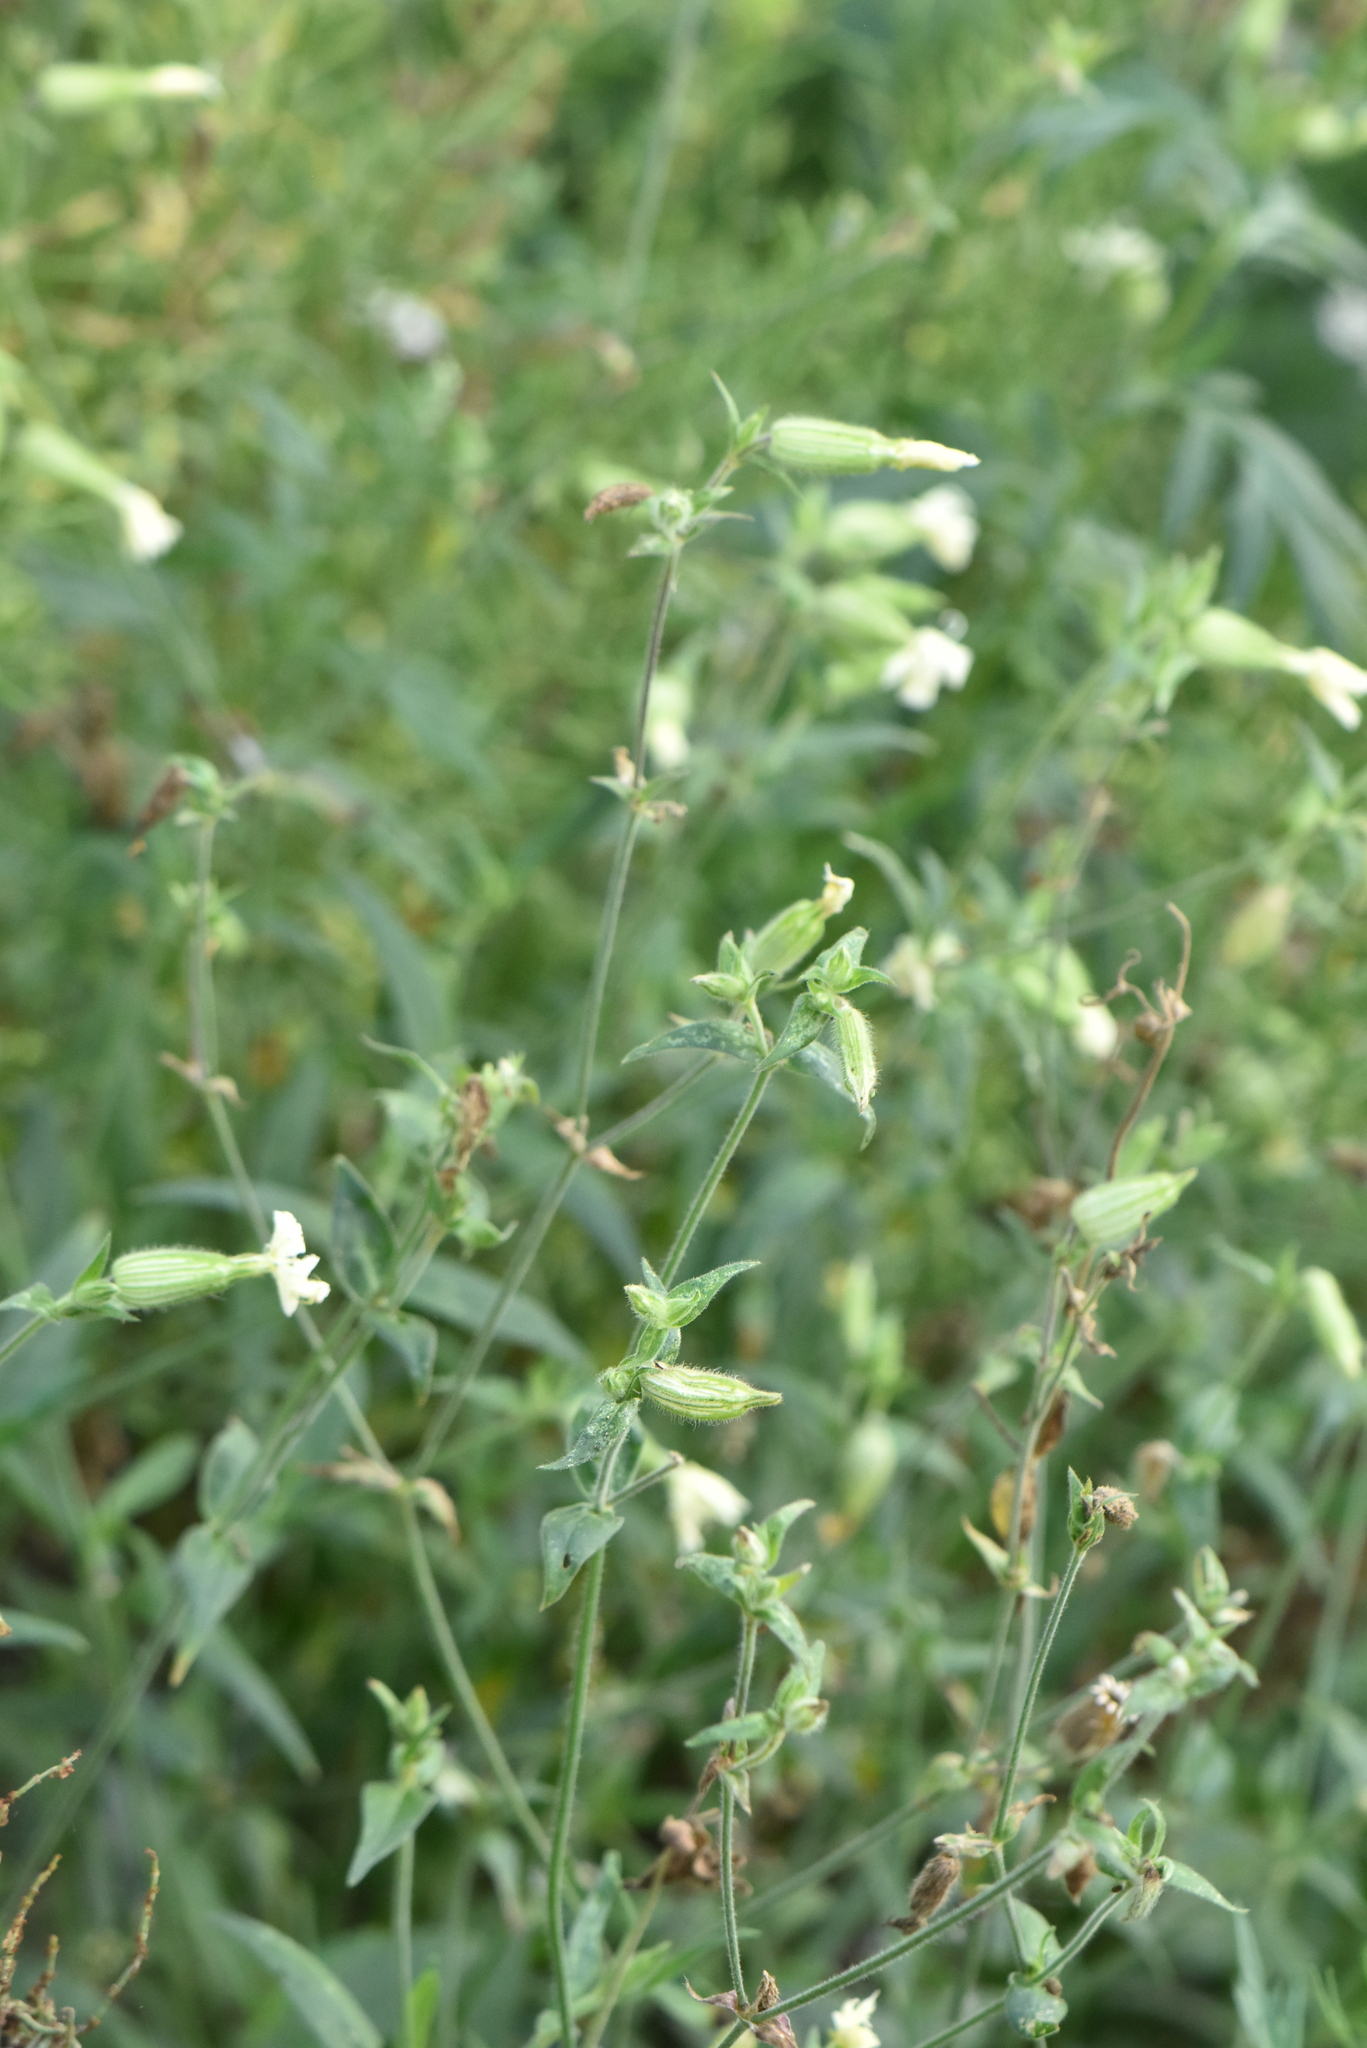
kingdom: Plantae
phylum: Tracheophyta
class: Magnoliopsida
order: Caryophyllales
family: Caryophyllaceae
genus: Silene
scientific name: Silene latifolia
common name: White campion
